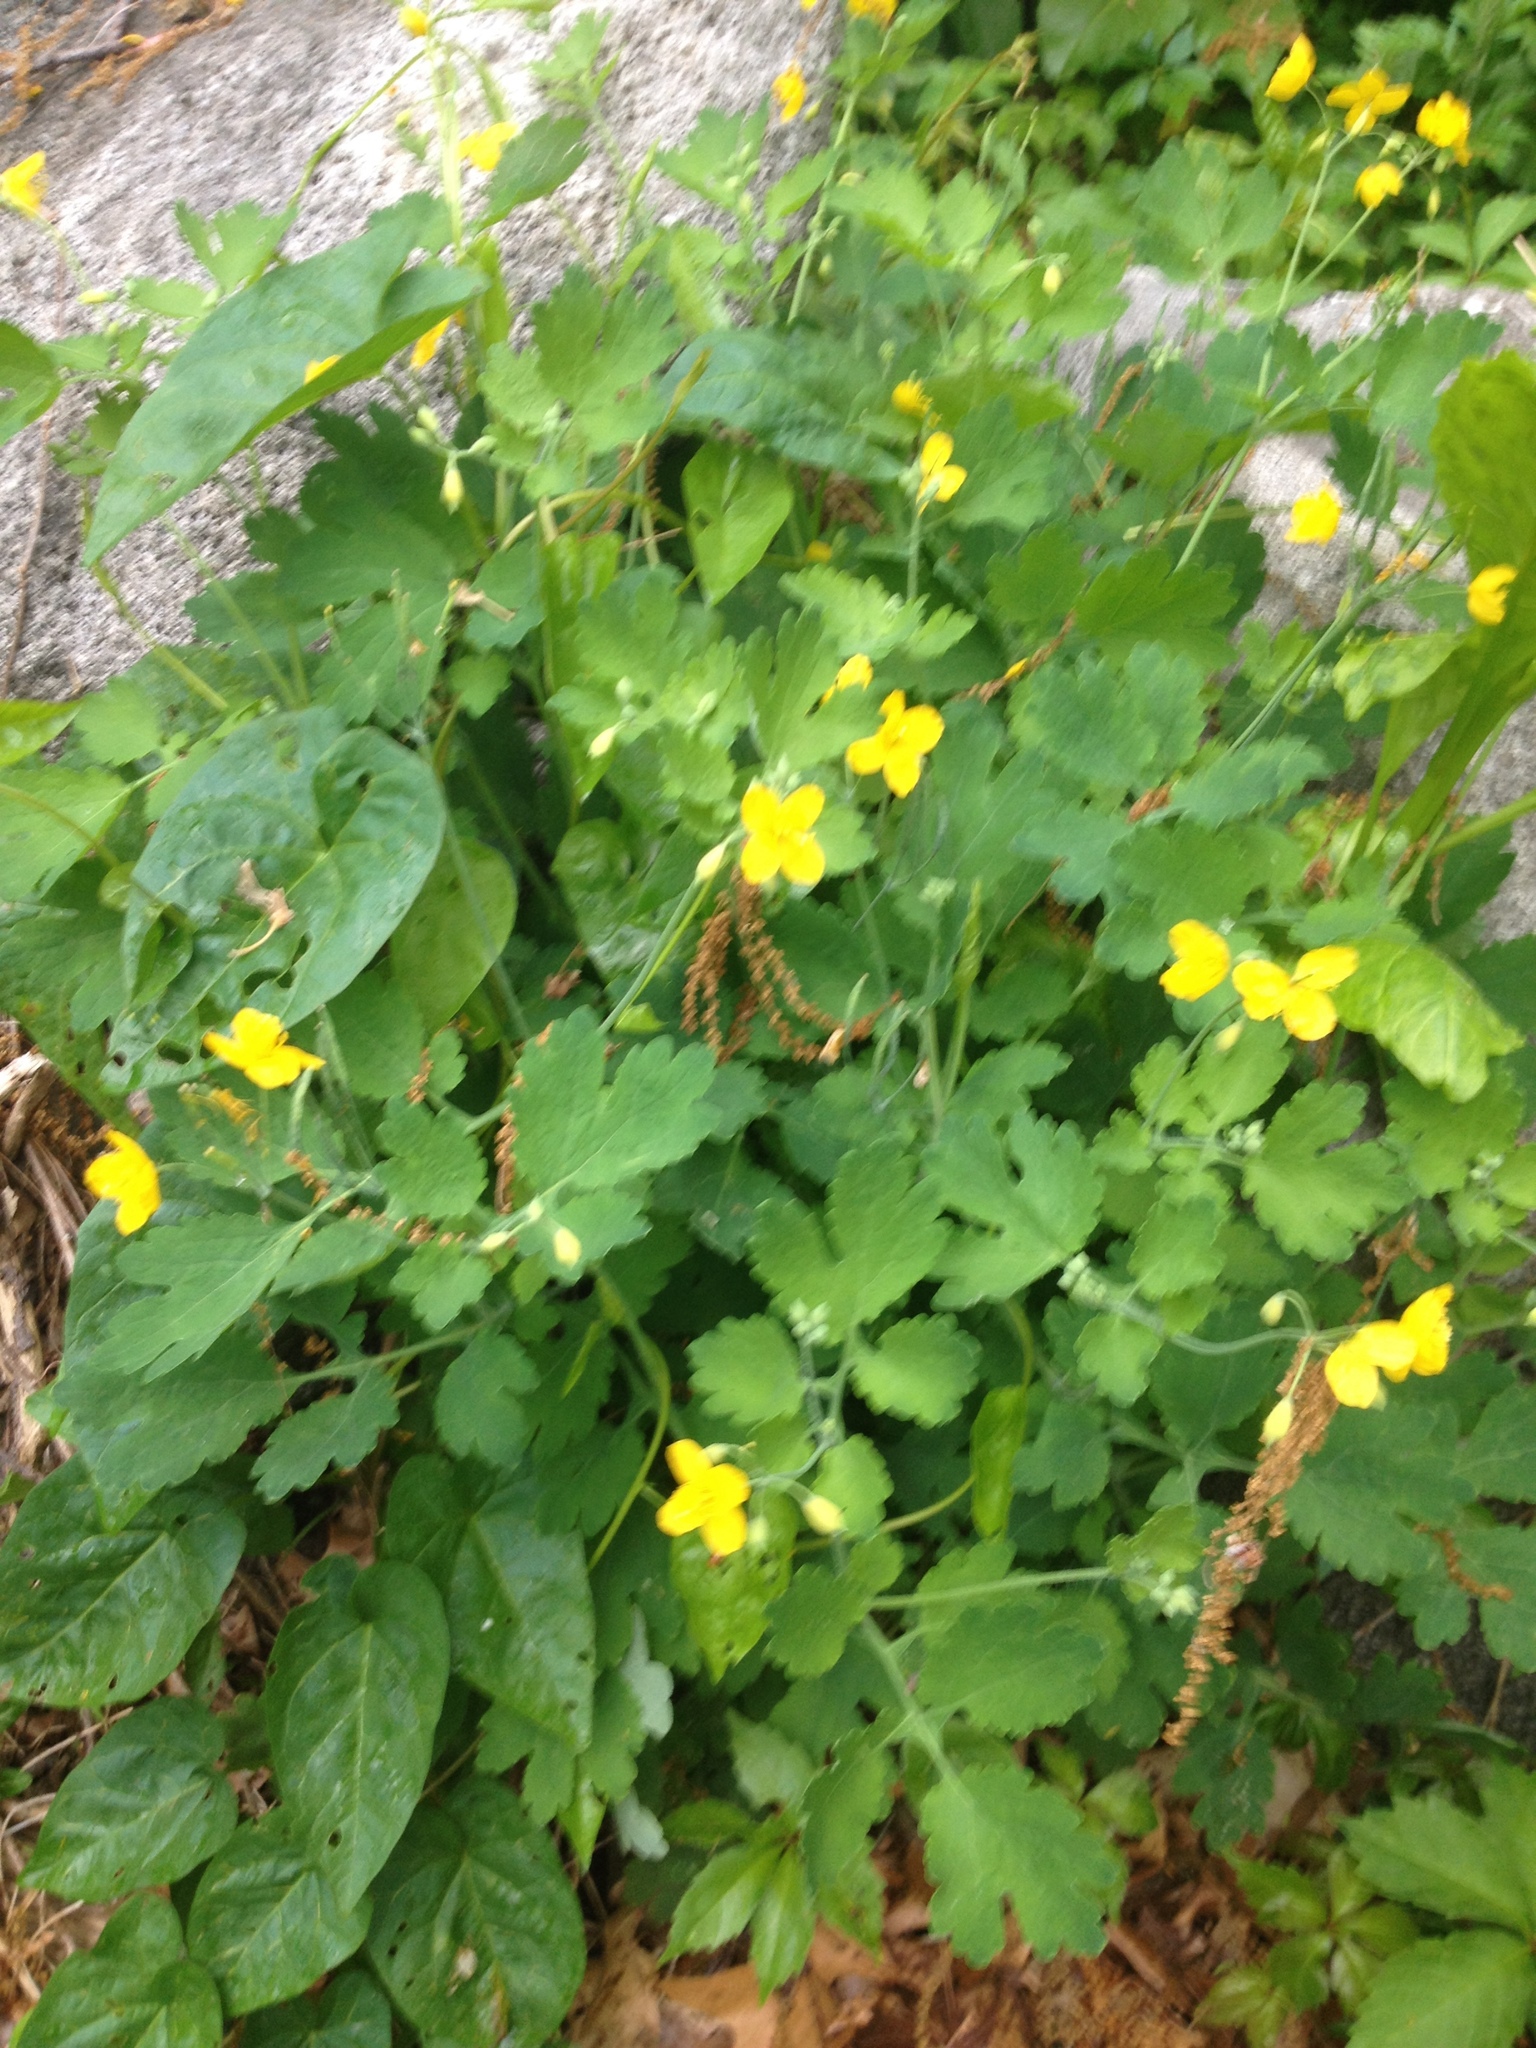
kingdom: Plantae
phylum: Tracheophyta
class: Magnoliopsida
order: Ranunculales
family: Papaveraceae
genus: Chelidonium
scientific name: Chelidonium majus
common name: Greater celandine
